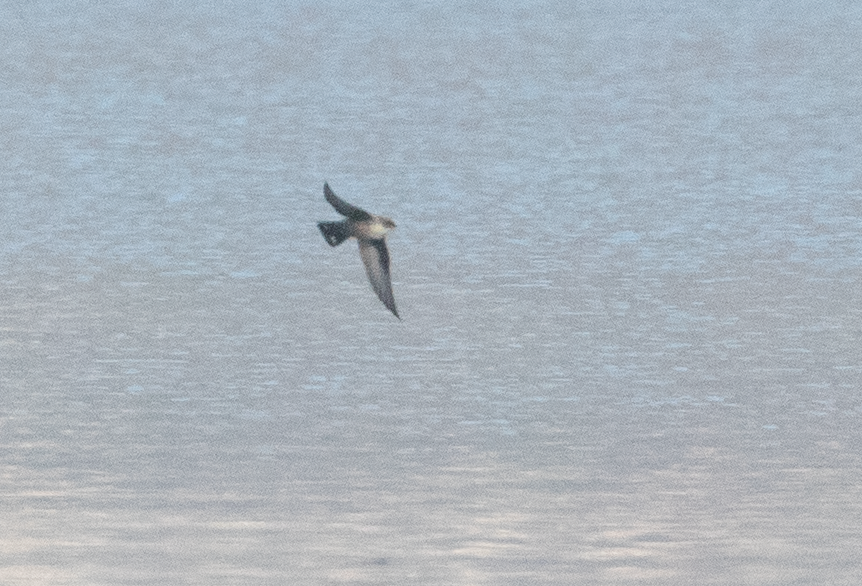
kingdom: Animalia
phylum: Chordata
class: Aves
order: Passeriformes
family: Hirundinidae
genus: Ptyonoprogne
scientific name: Ptyonoprogne rupestris
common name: Eurasian crag martin
